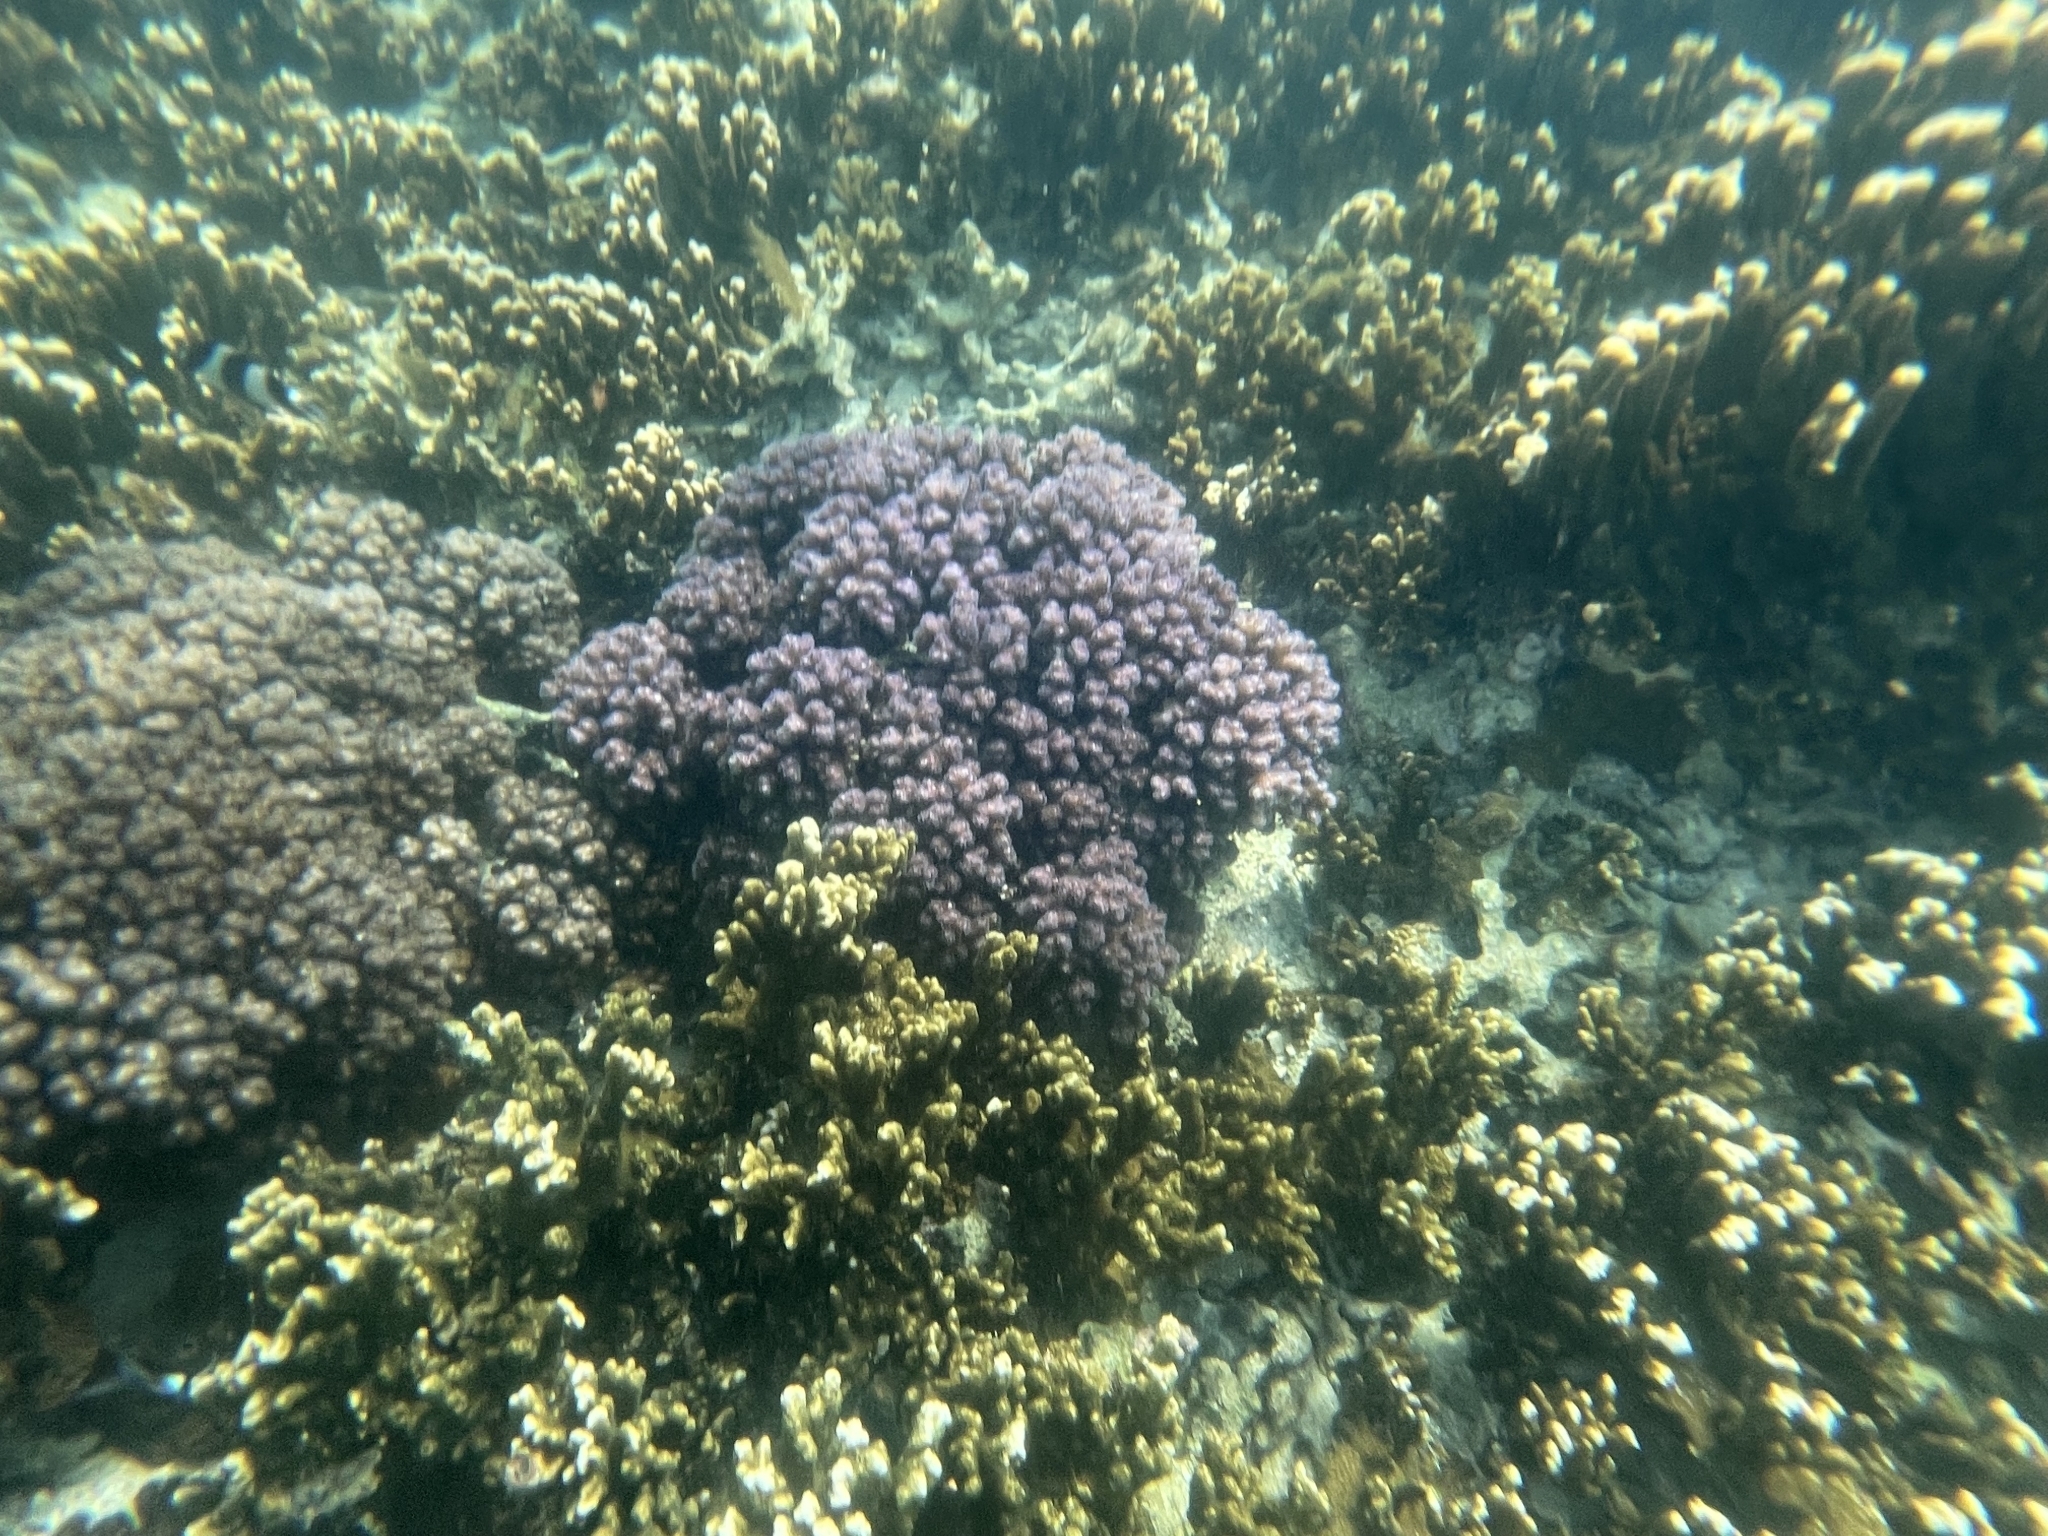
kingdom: Animalia
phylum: Cnidaria
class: Anthozoa
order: Scleractinia
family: Pocilloporidae
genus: Pocillopora
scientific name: Pocillopora verrucosa
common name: Cauliflower coral
